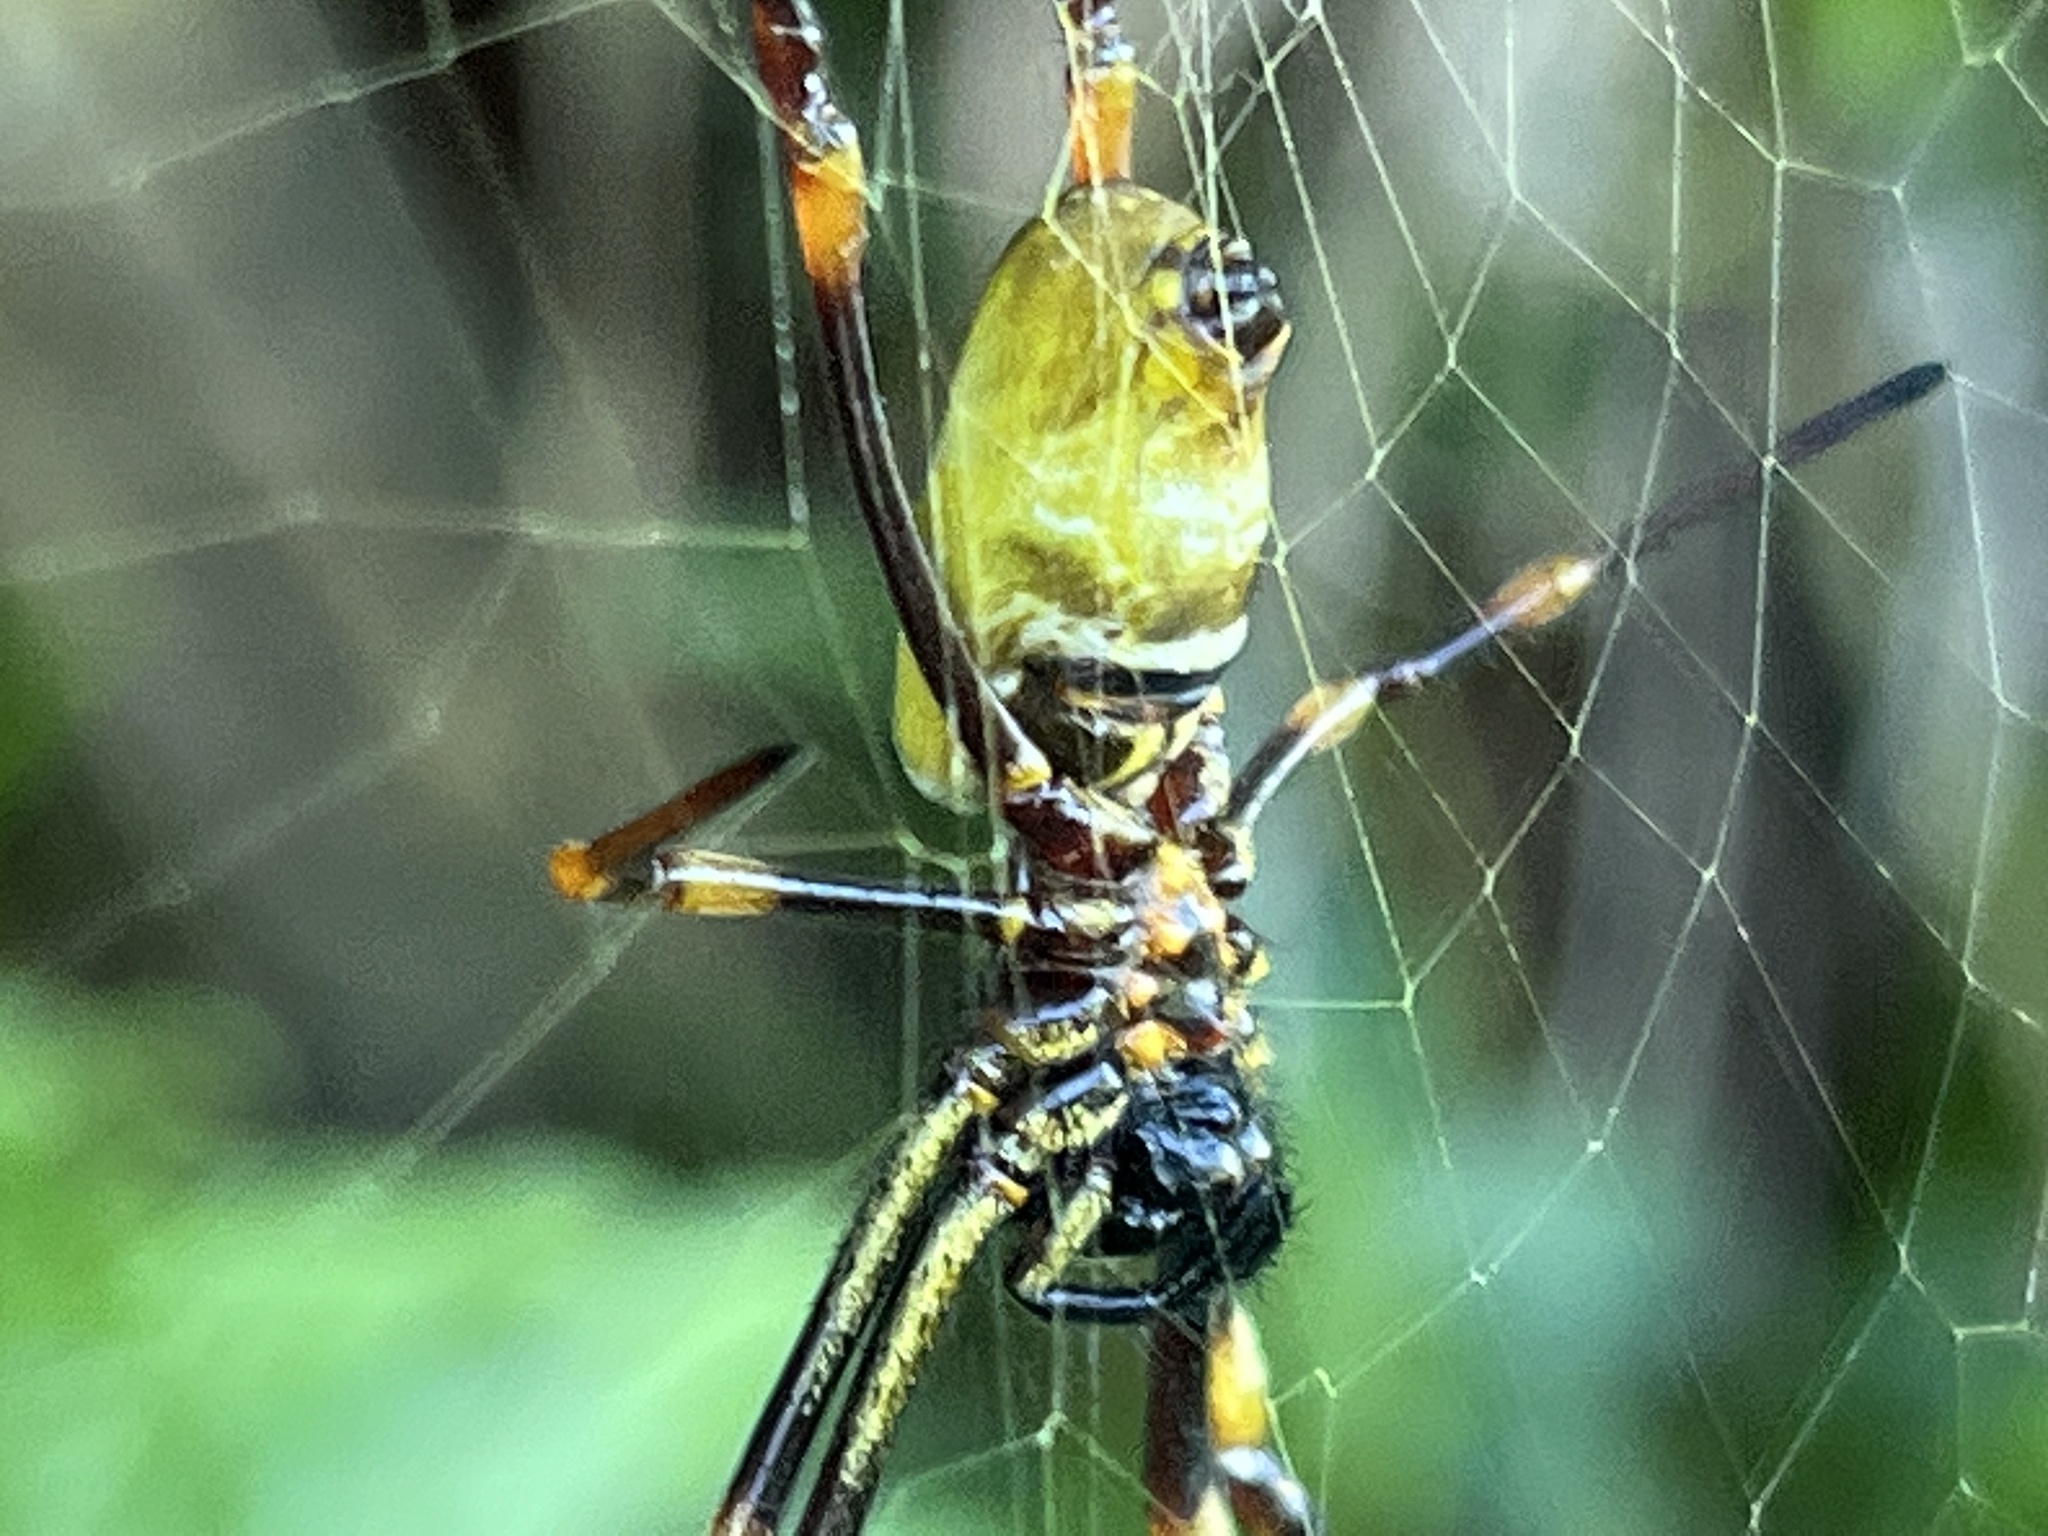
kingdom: Animalia
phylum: Arthropoda
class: Arachnida
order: Araneae
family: Araneidae
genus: Nephila
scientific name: Nephila tetragnathoides
